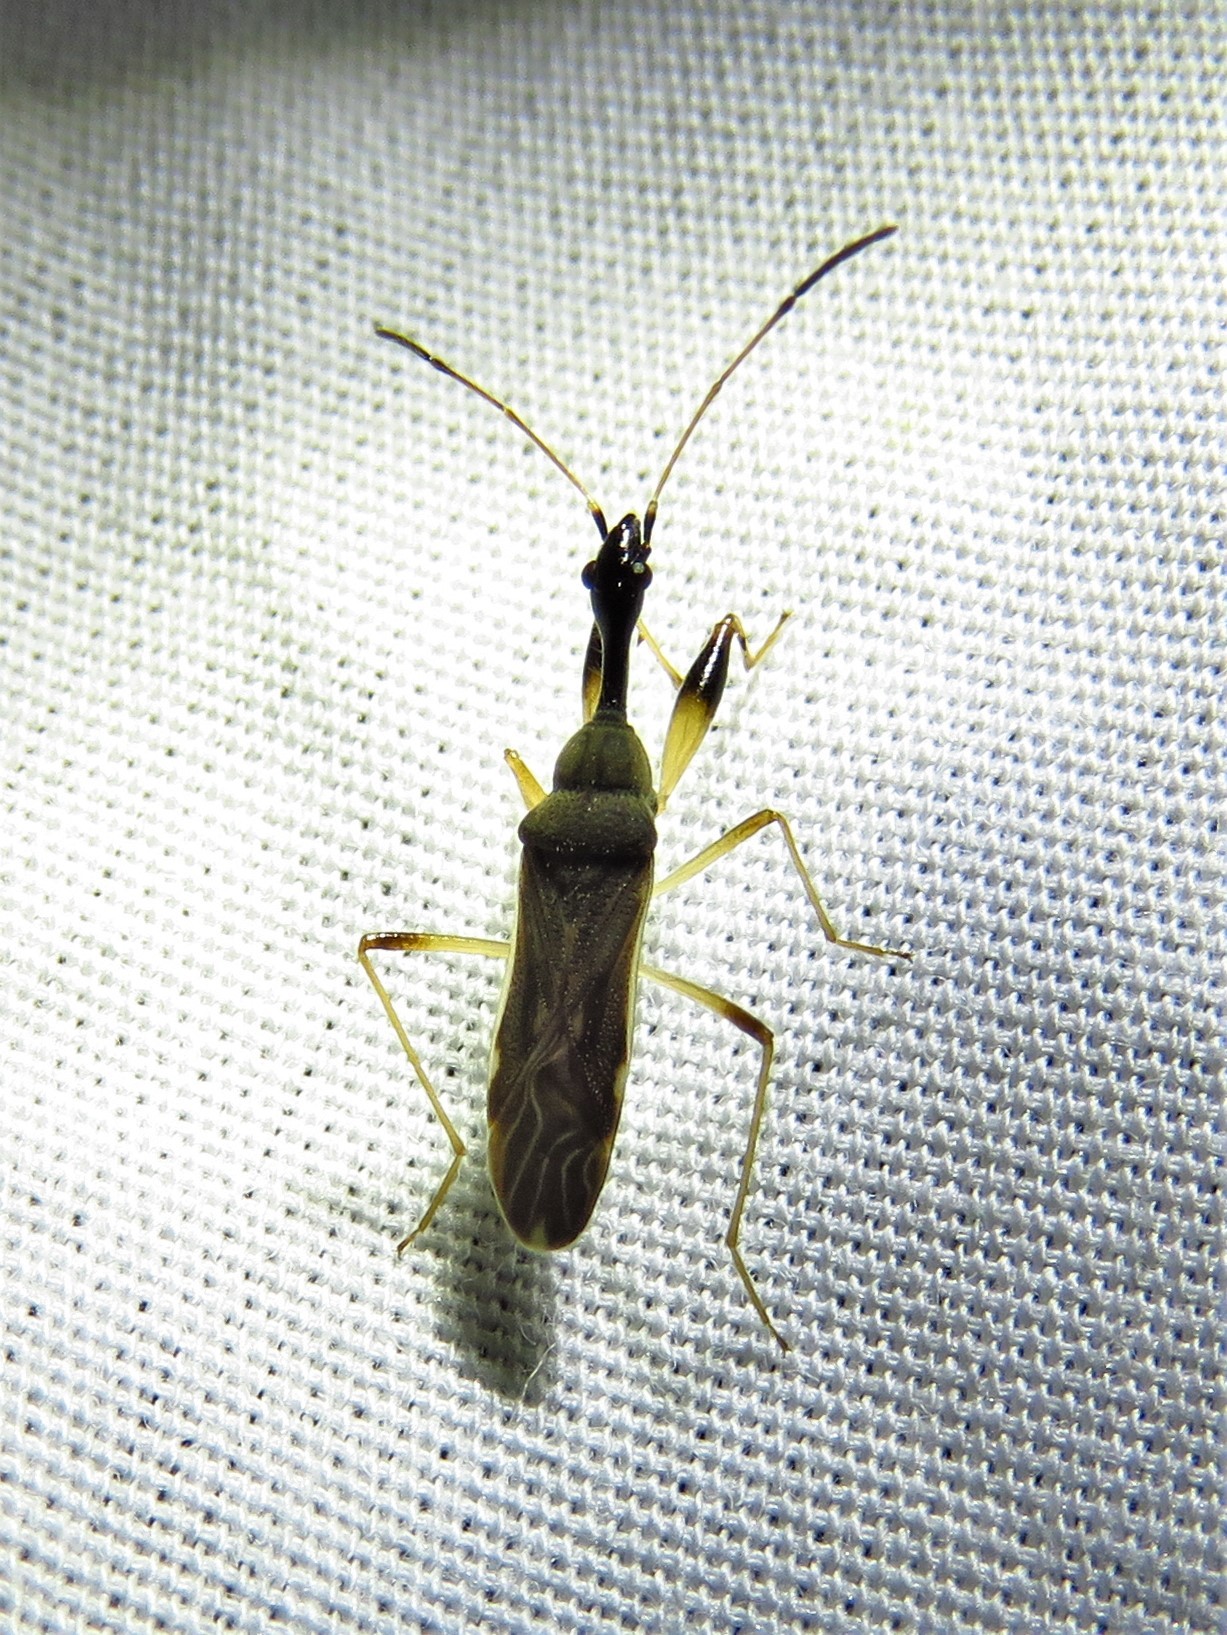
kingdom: Animalia
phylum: Arthropoda
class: Insecta
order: Hemiptera
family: Rhyparochromidae
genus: Myodocha
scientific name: Myodocha serripes
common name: Long-necked seed bug
